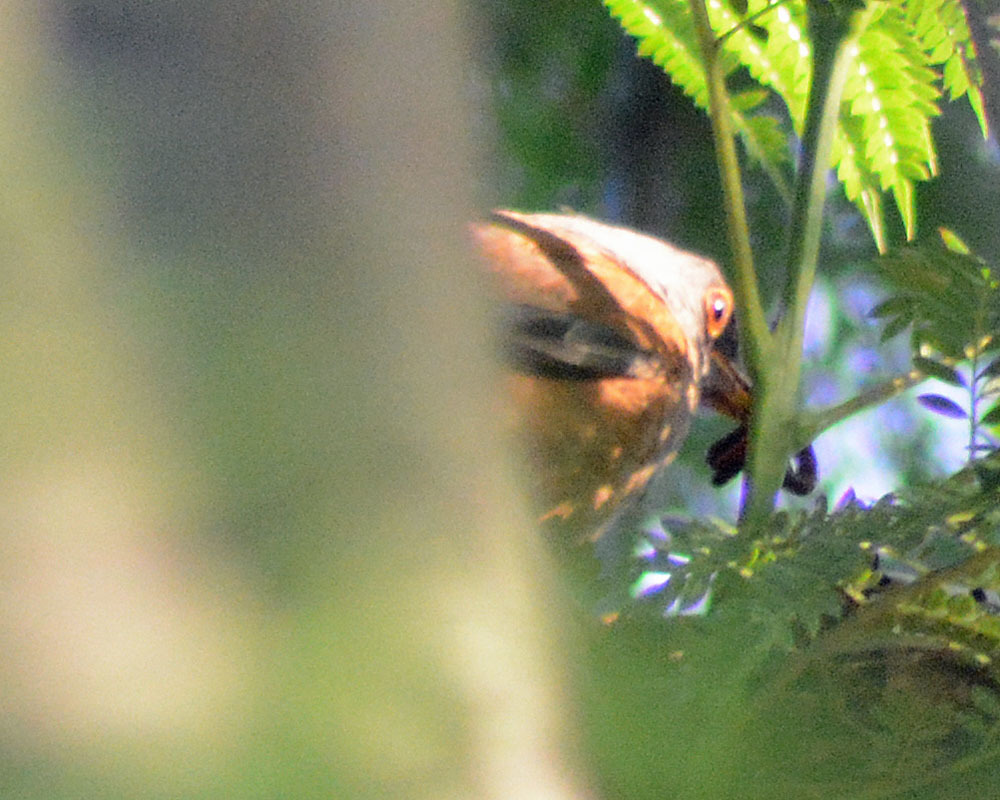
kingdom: Animalia
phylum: Chordata
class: Aves
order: Passeriformes
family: Turdidae
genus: Turdus
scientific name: Turdus rufopalliatus
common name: Rufous-backed robin
